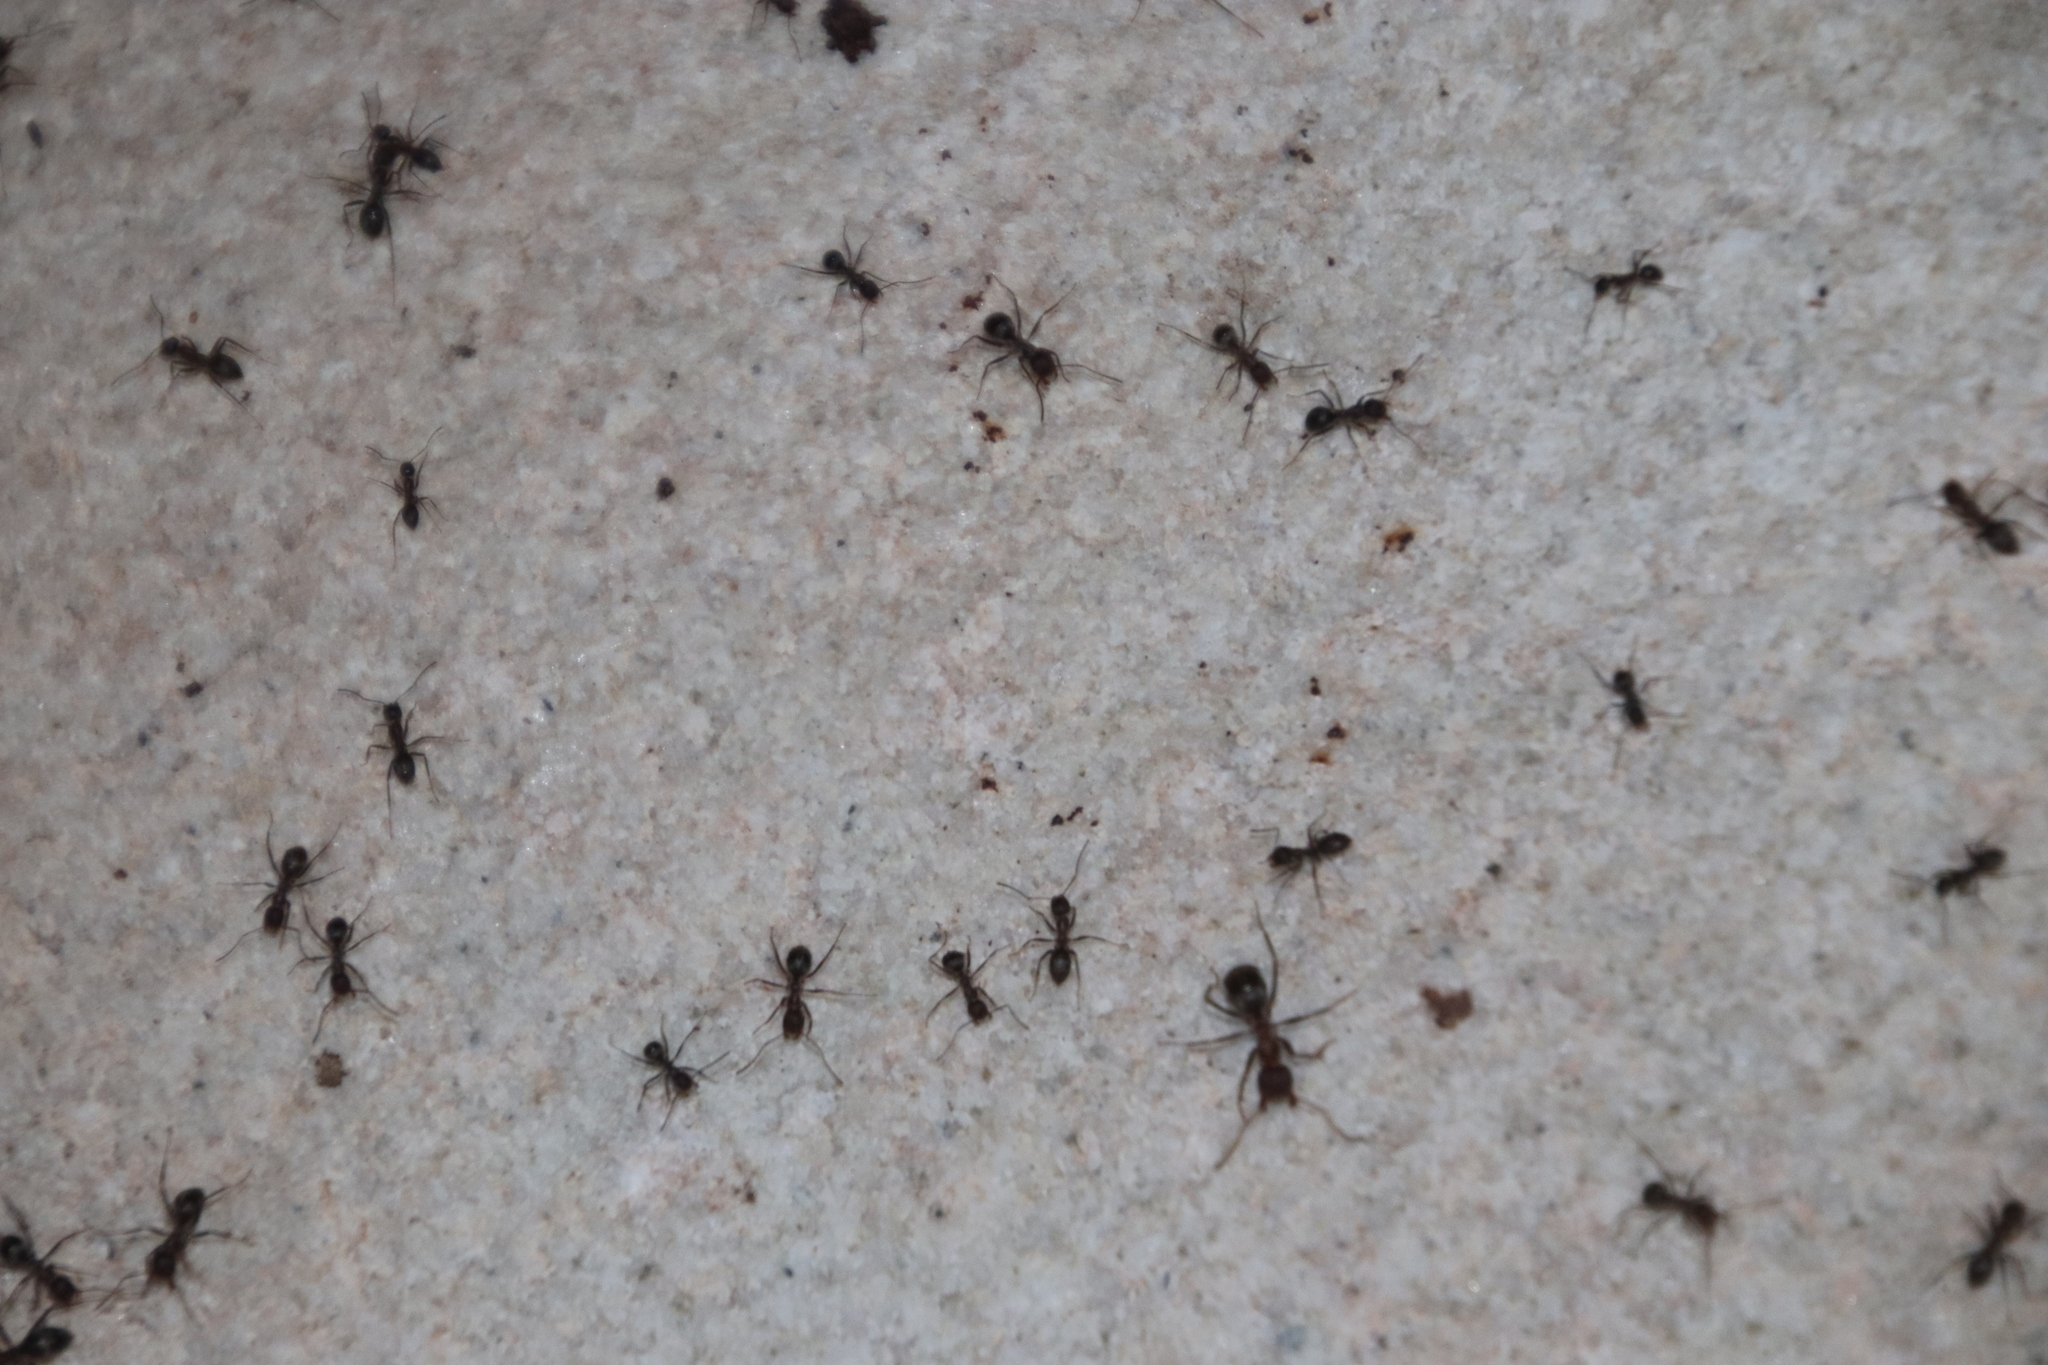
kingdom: Animalia
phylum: Arthropoda
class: Insecta
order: Hymenoptera
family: Formicidae
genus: Anoplolepis
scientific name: Anoplolepis steingroeveri
